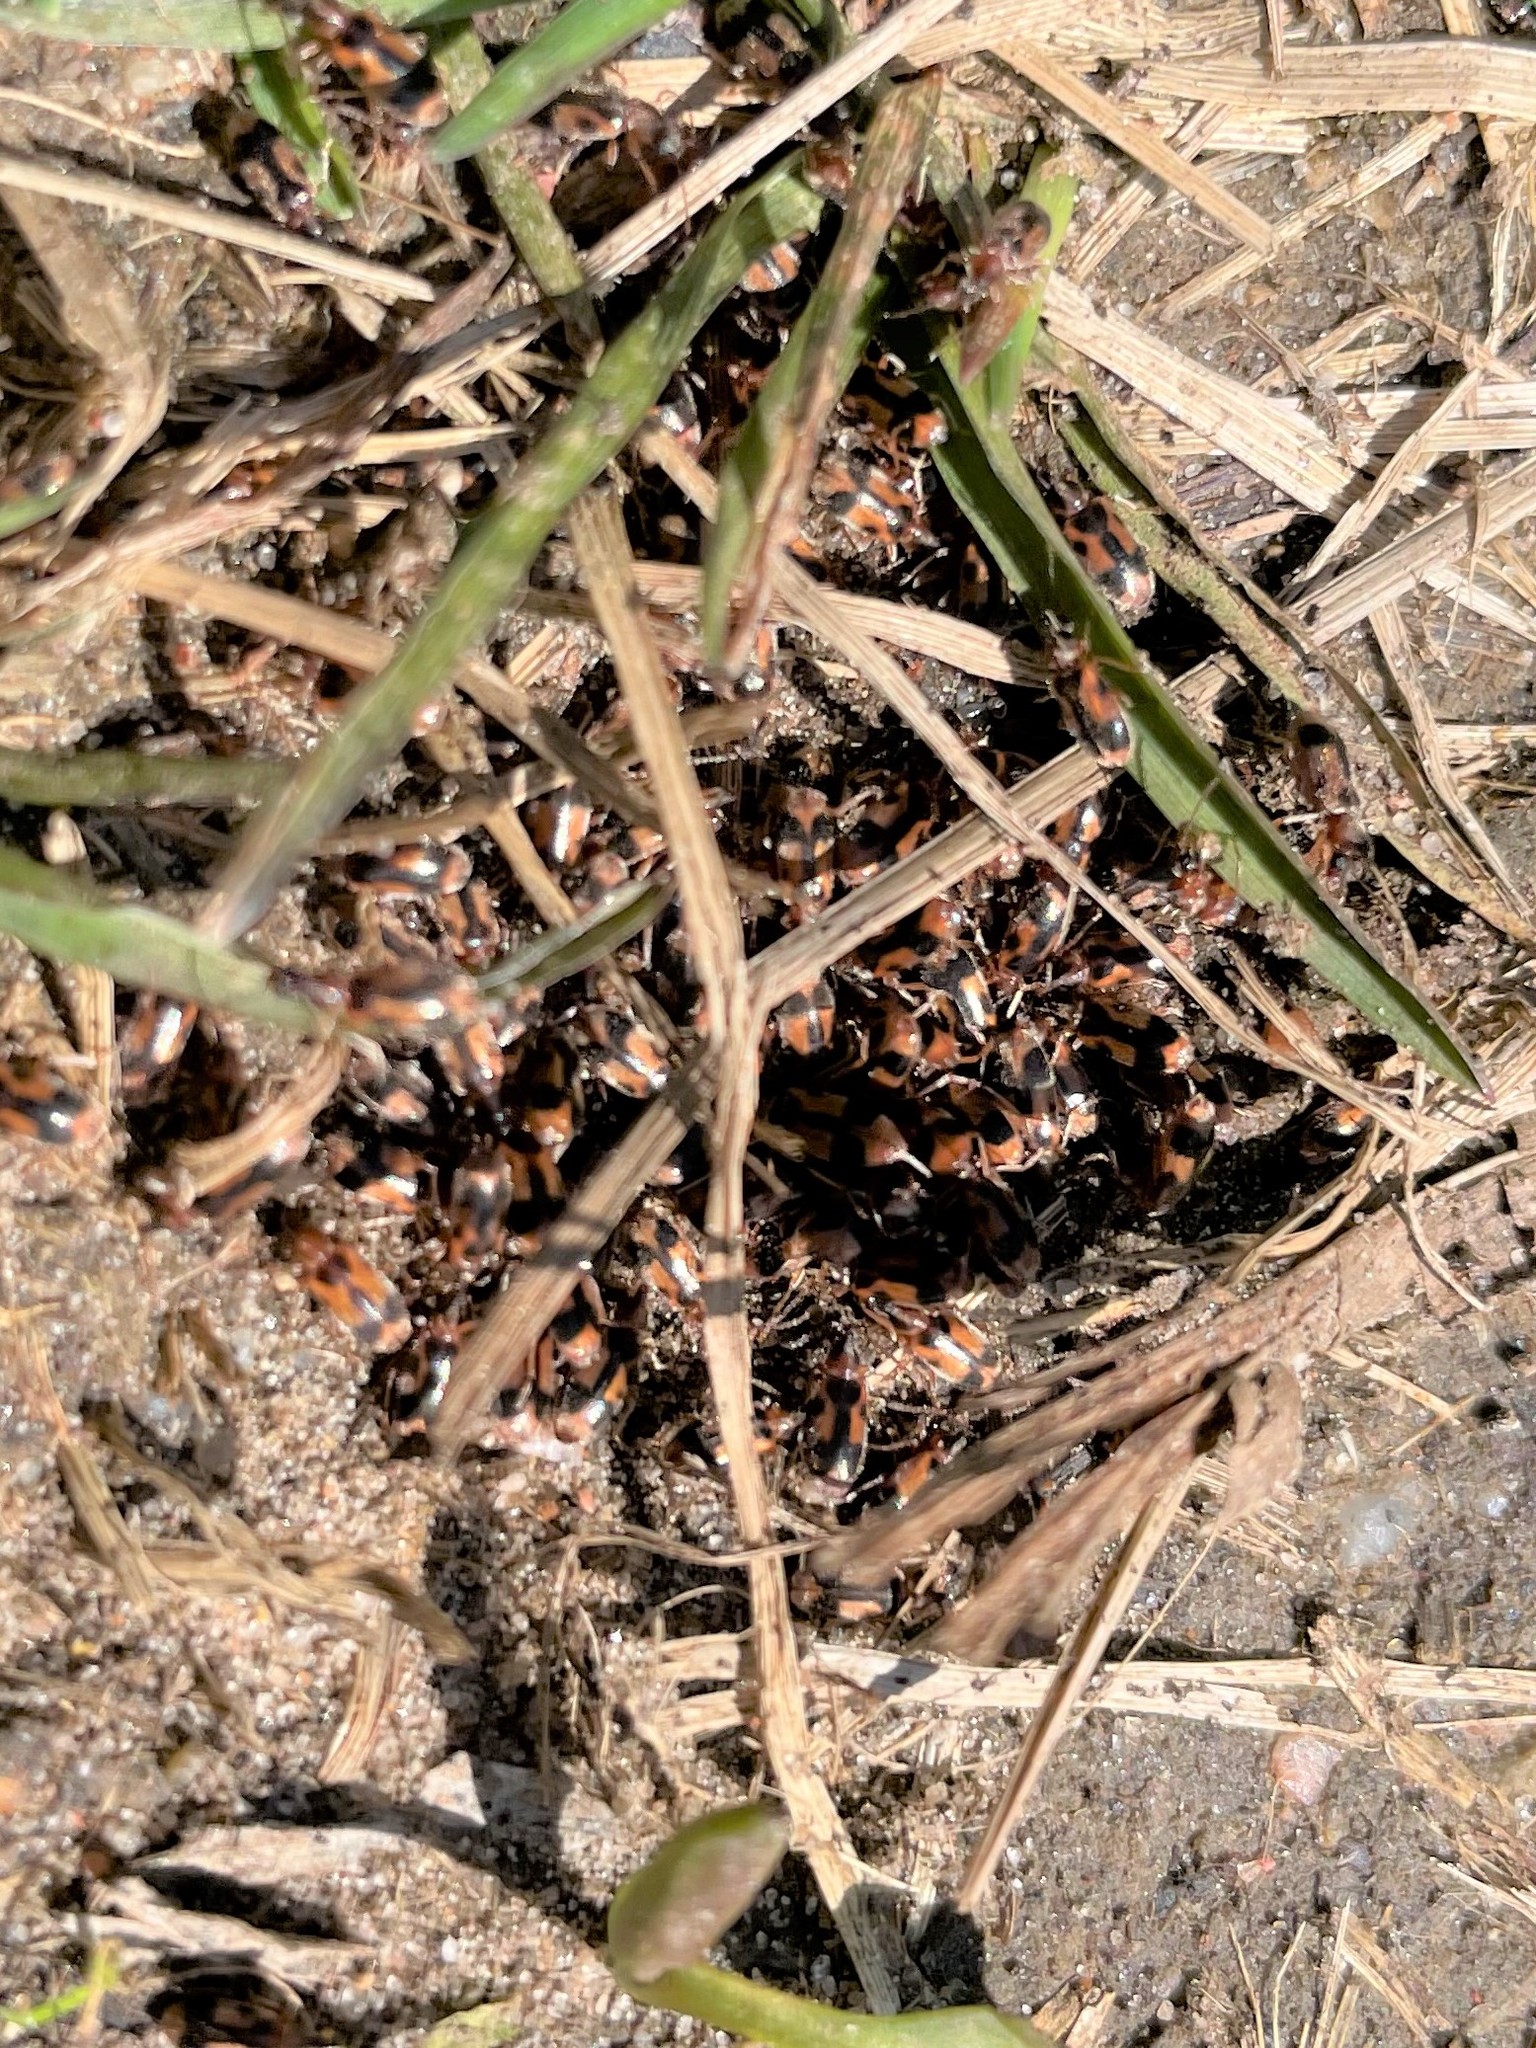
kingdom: Animalia
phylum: Arthropoda
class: Insecta
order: Coleoptera
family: Anthicidae
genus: Notoxus
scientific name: Notoxus monoceros
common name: Monoceros beetle
